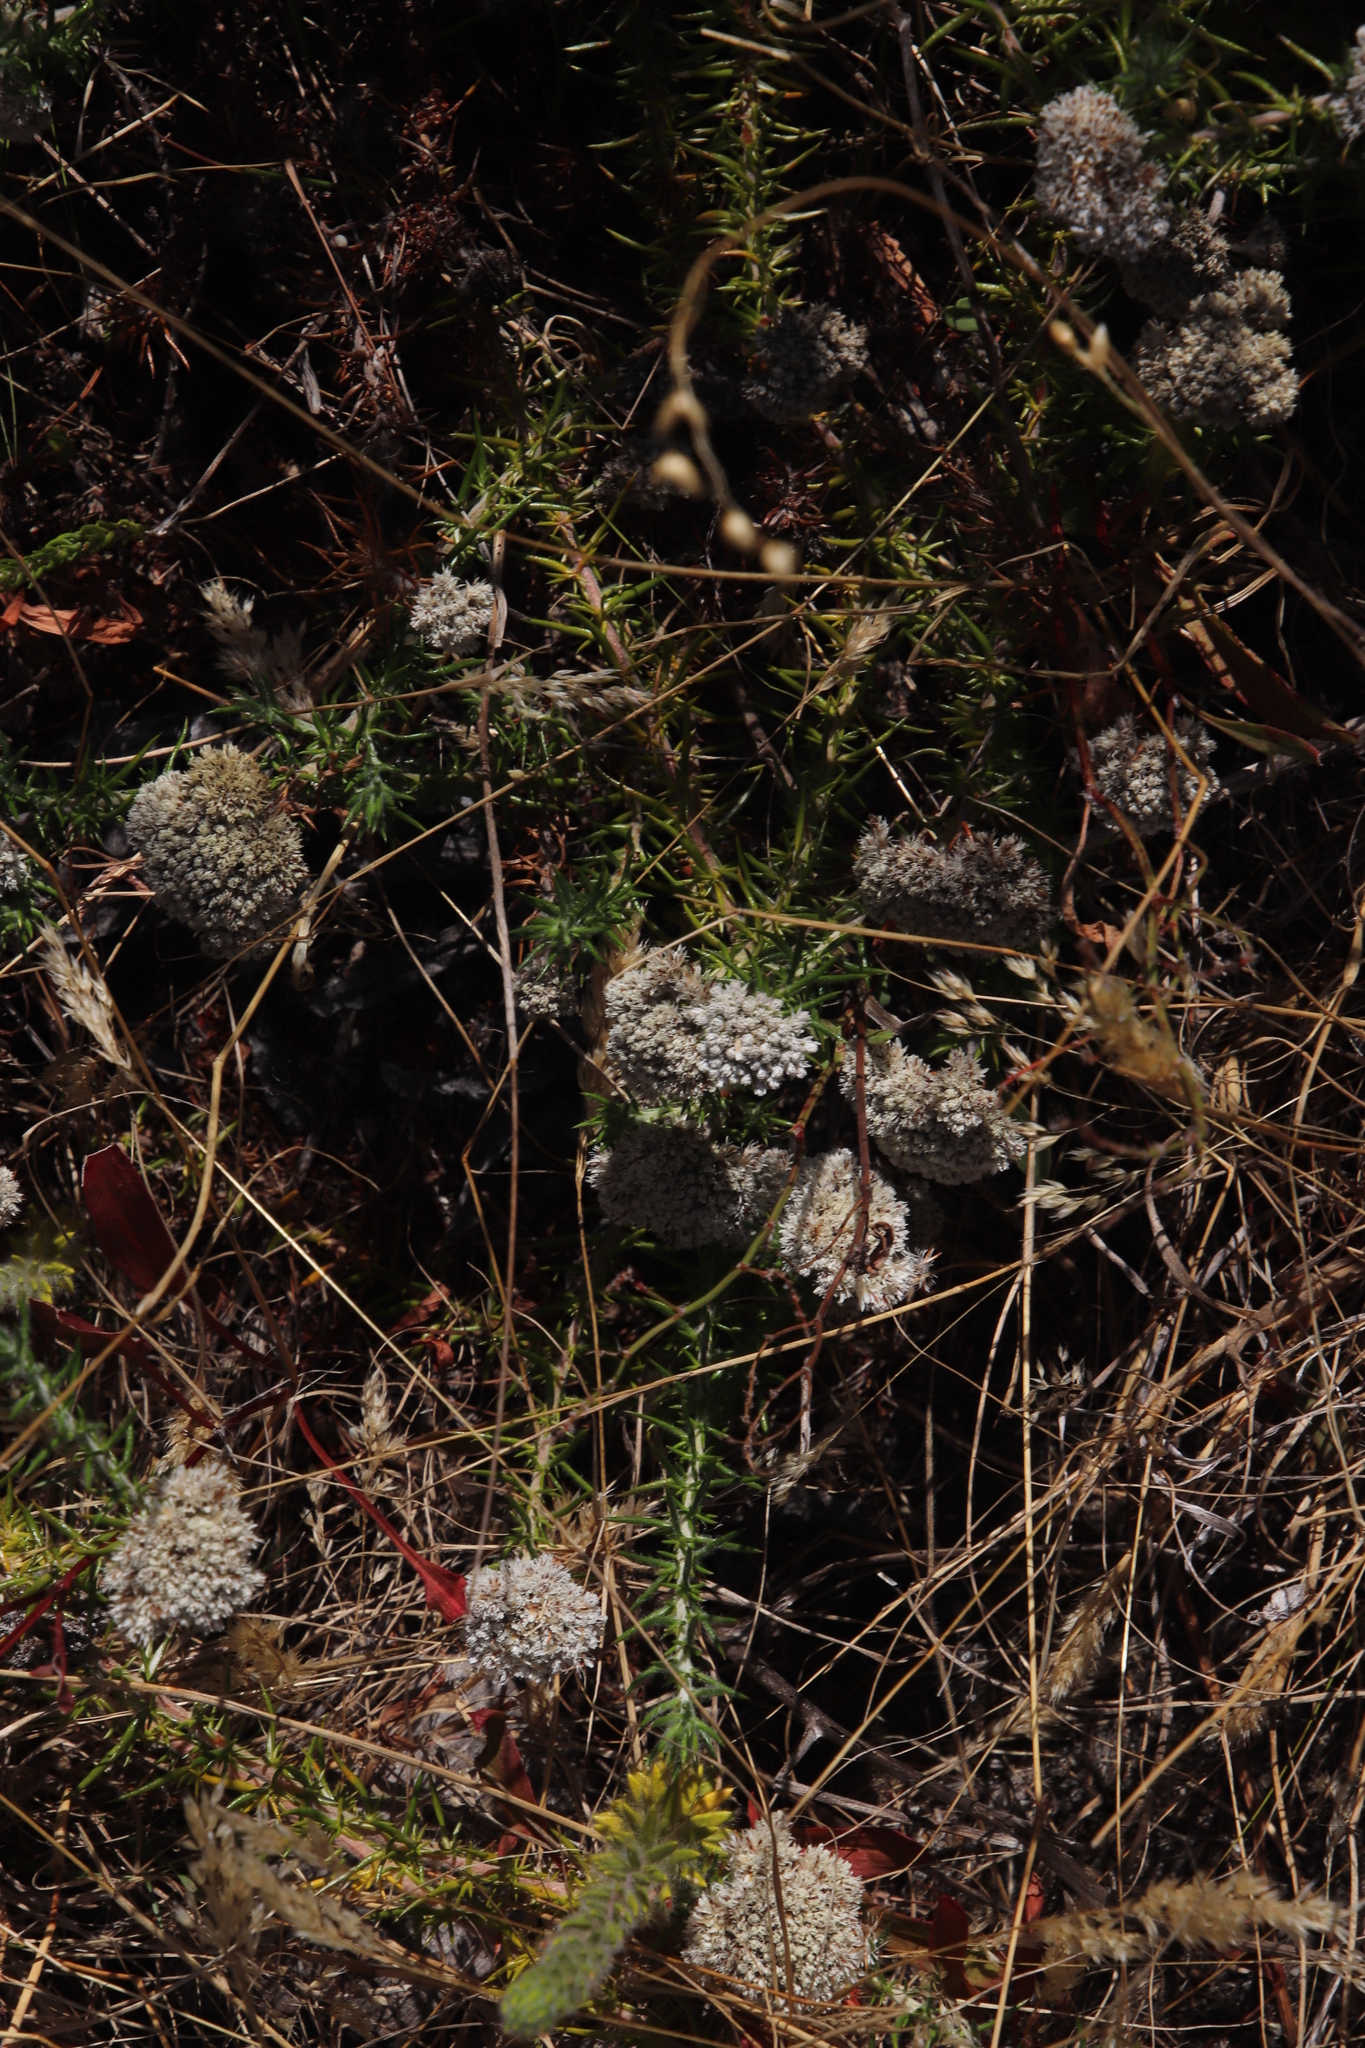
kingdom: Plantae
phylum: Tracheophyta
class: Magnoliopsida
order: Asterales
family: Asteraceae
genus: Metalasia
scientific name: Metalasia pulchella
